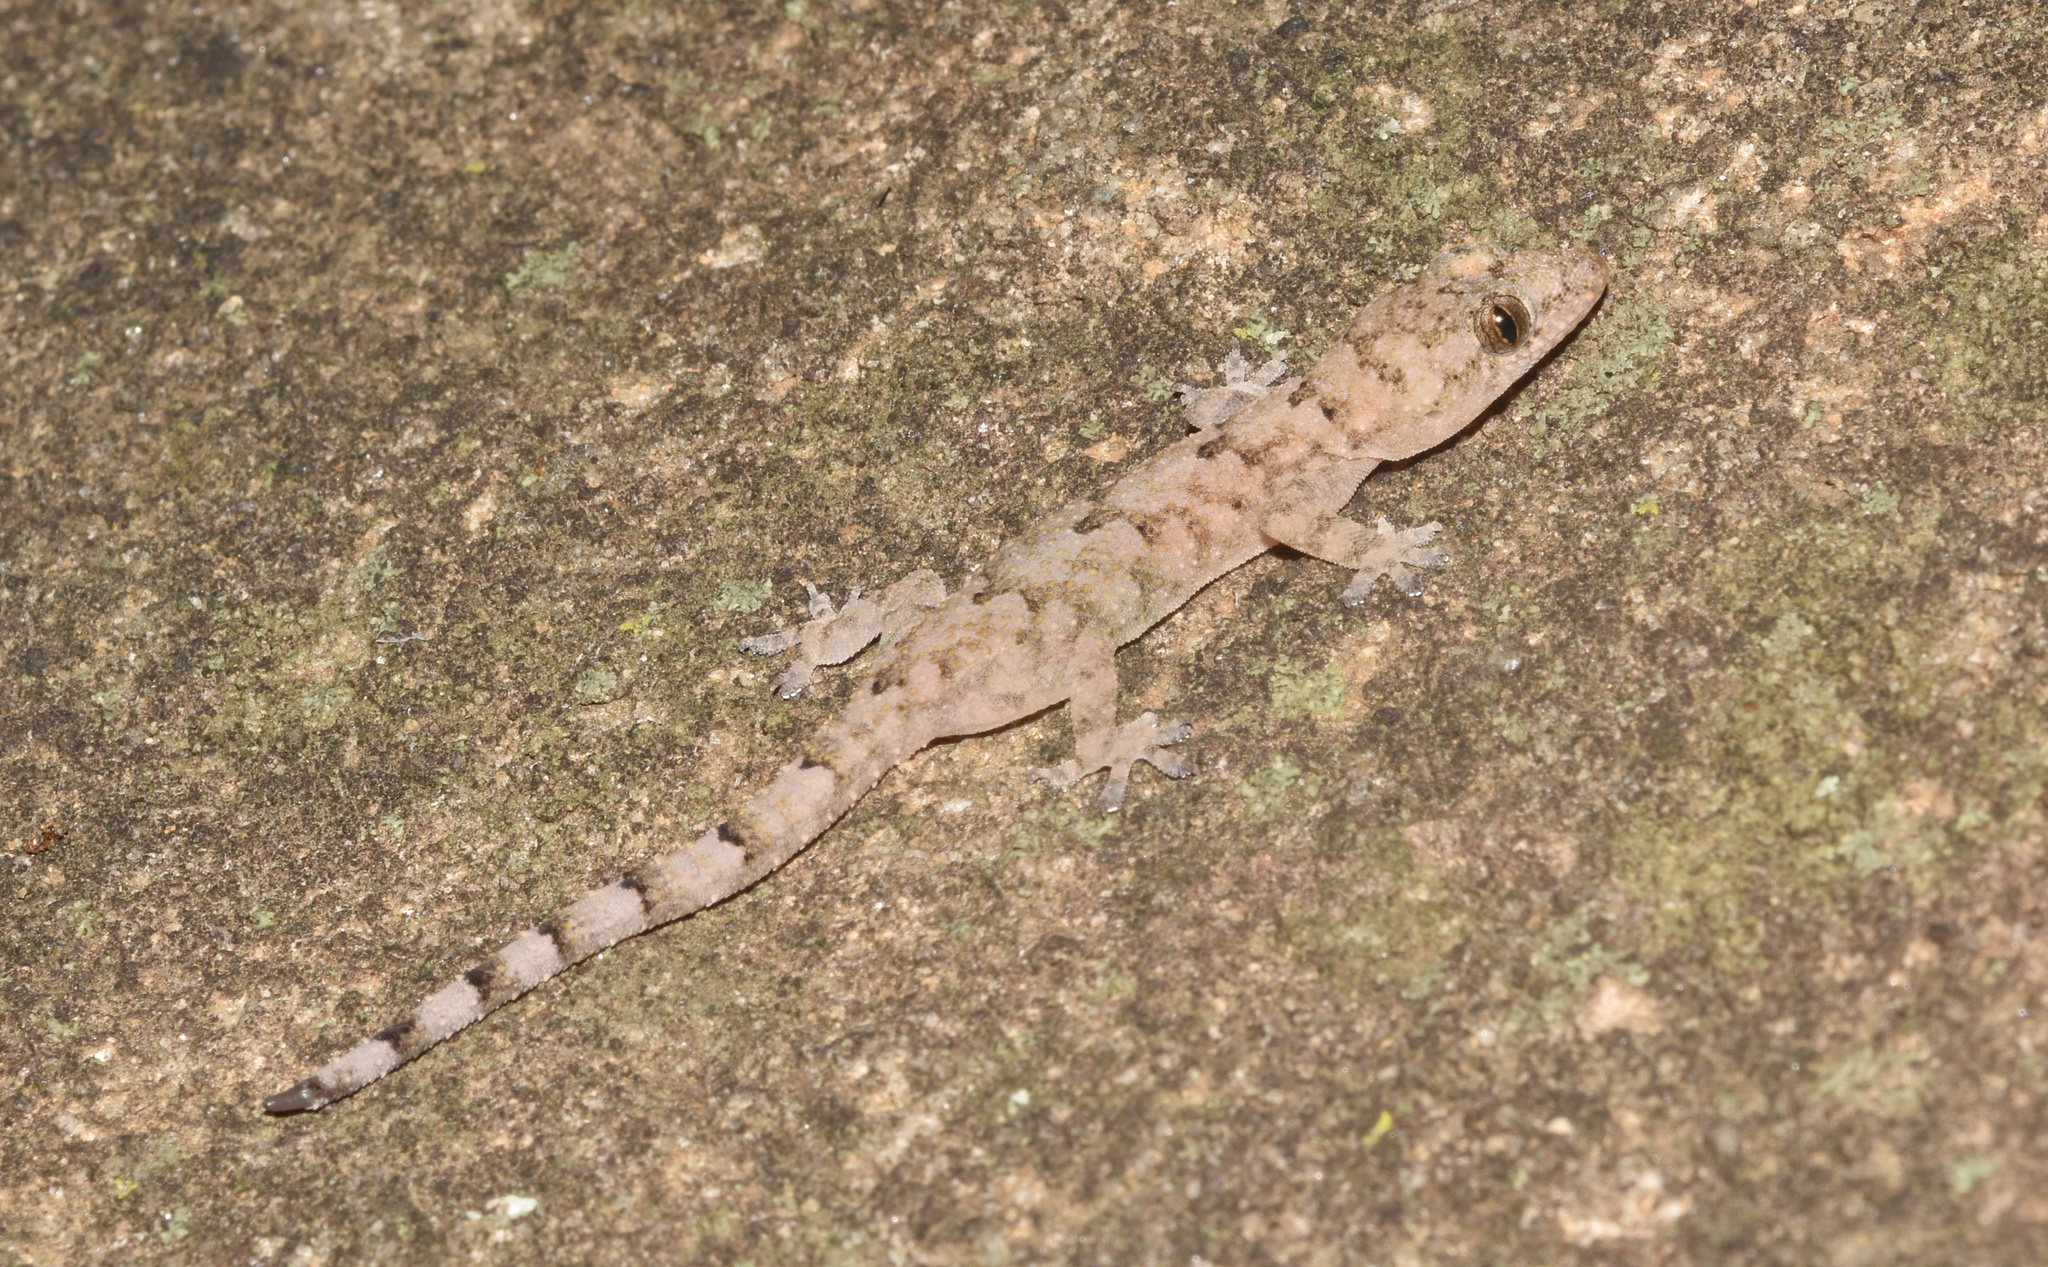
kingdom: Animalia
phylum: Chordata
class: Squamata
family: Gekkonidae
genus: Hemidactylus
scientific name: Hemidactylus mabouia
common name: House gecko
